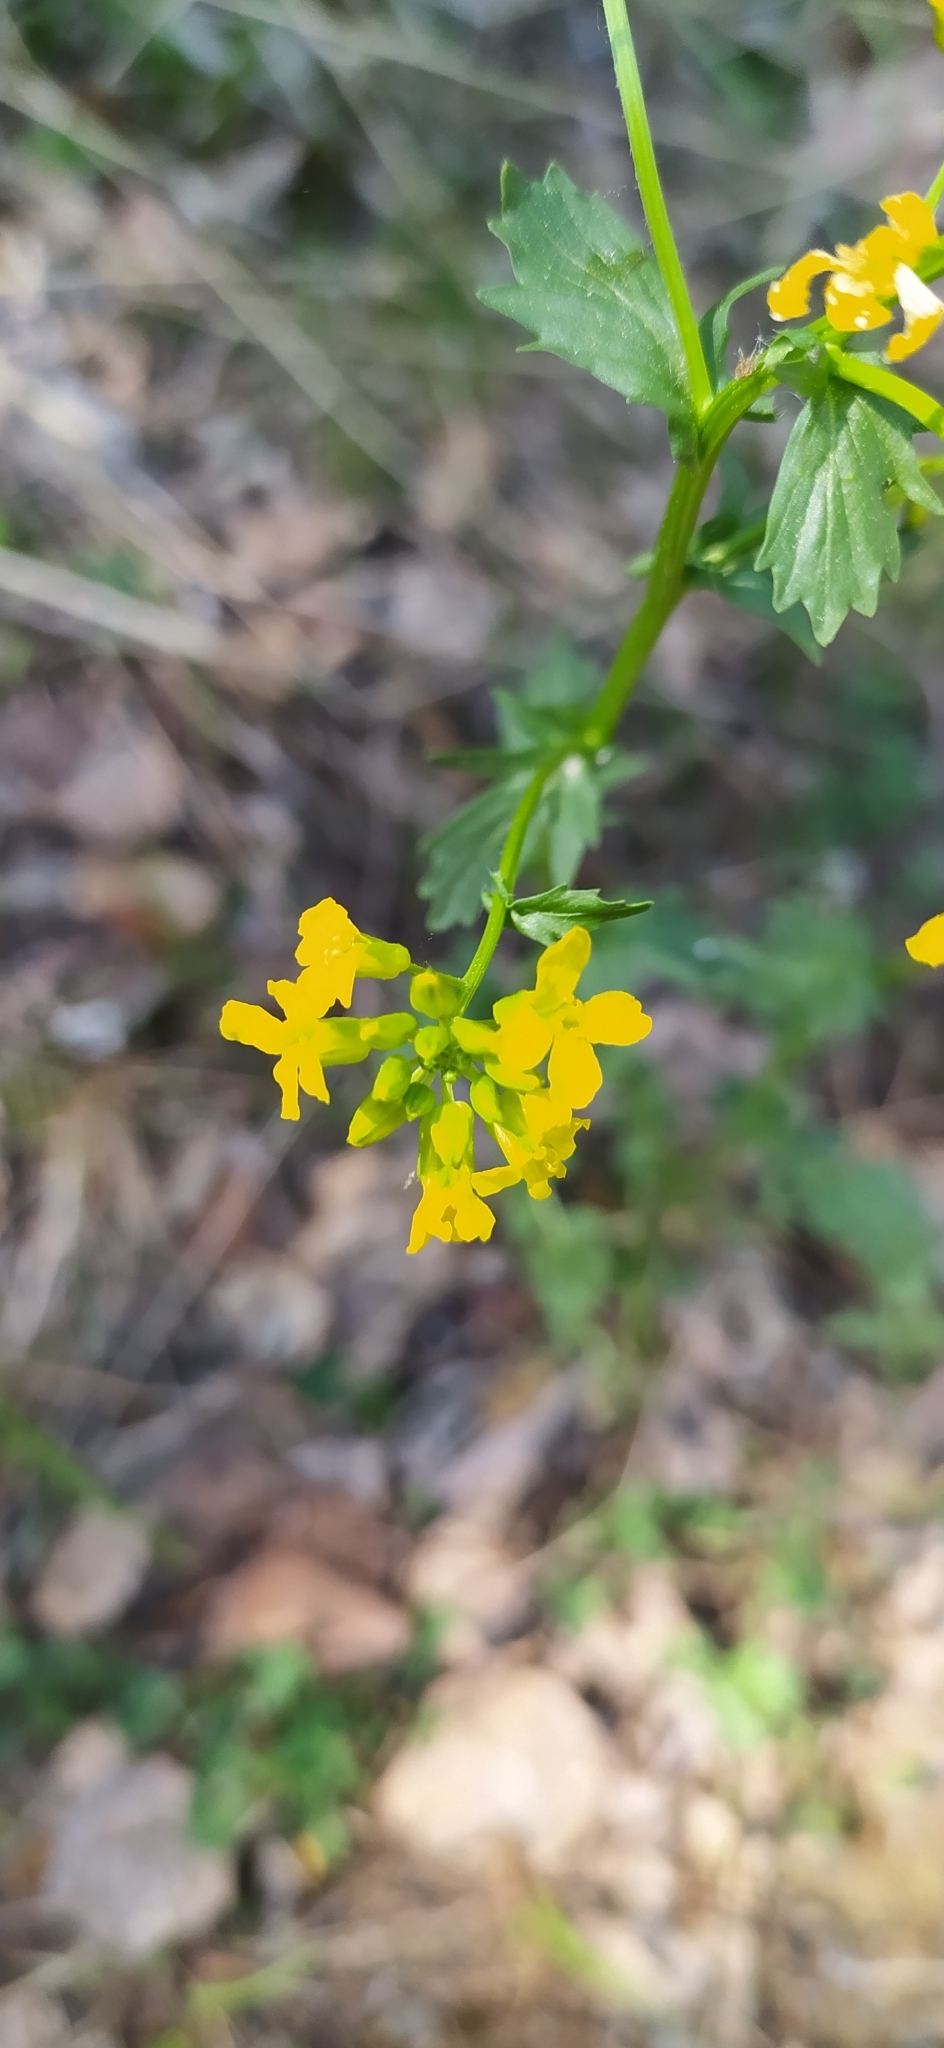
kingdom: Plantae
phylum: Tracheophyta
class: Magnoliopsida
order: Brassicales
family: Brassicaceae
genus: Barbarea
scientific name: Barbarea vulgaris
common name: Cressy-greens
